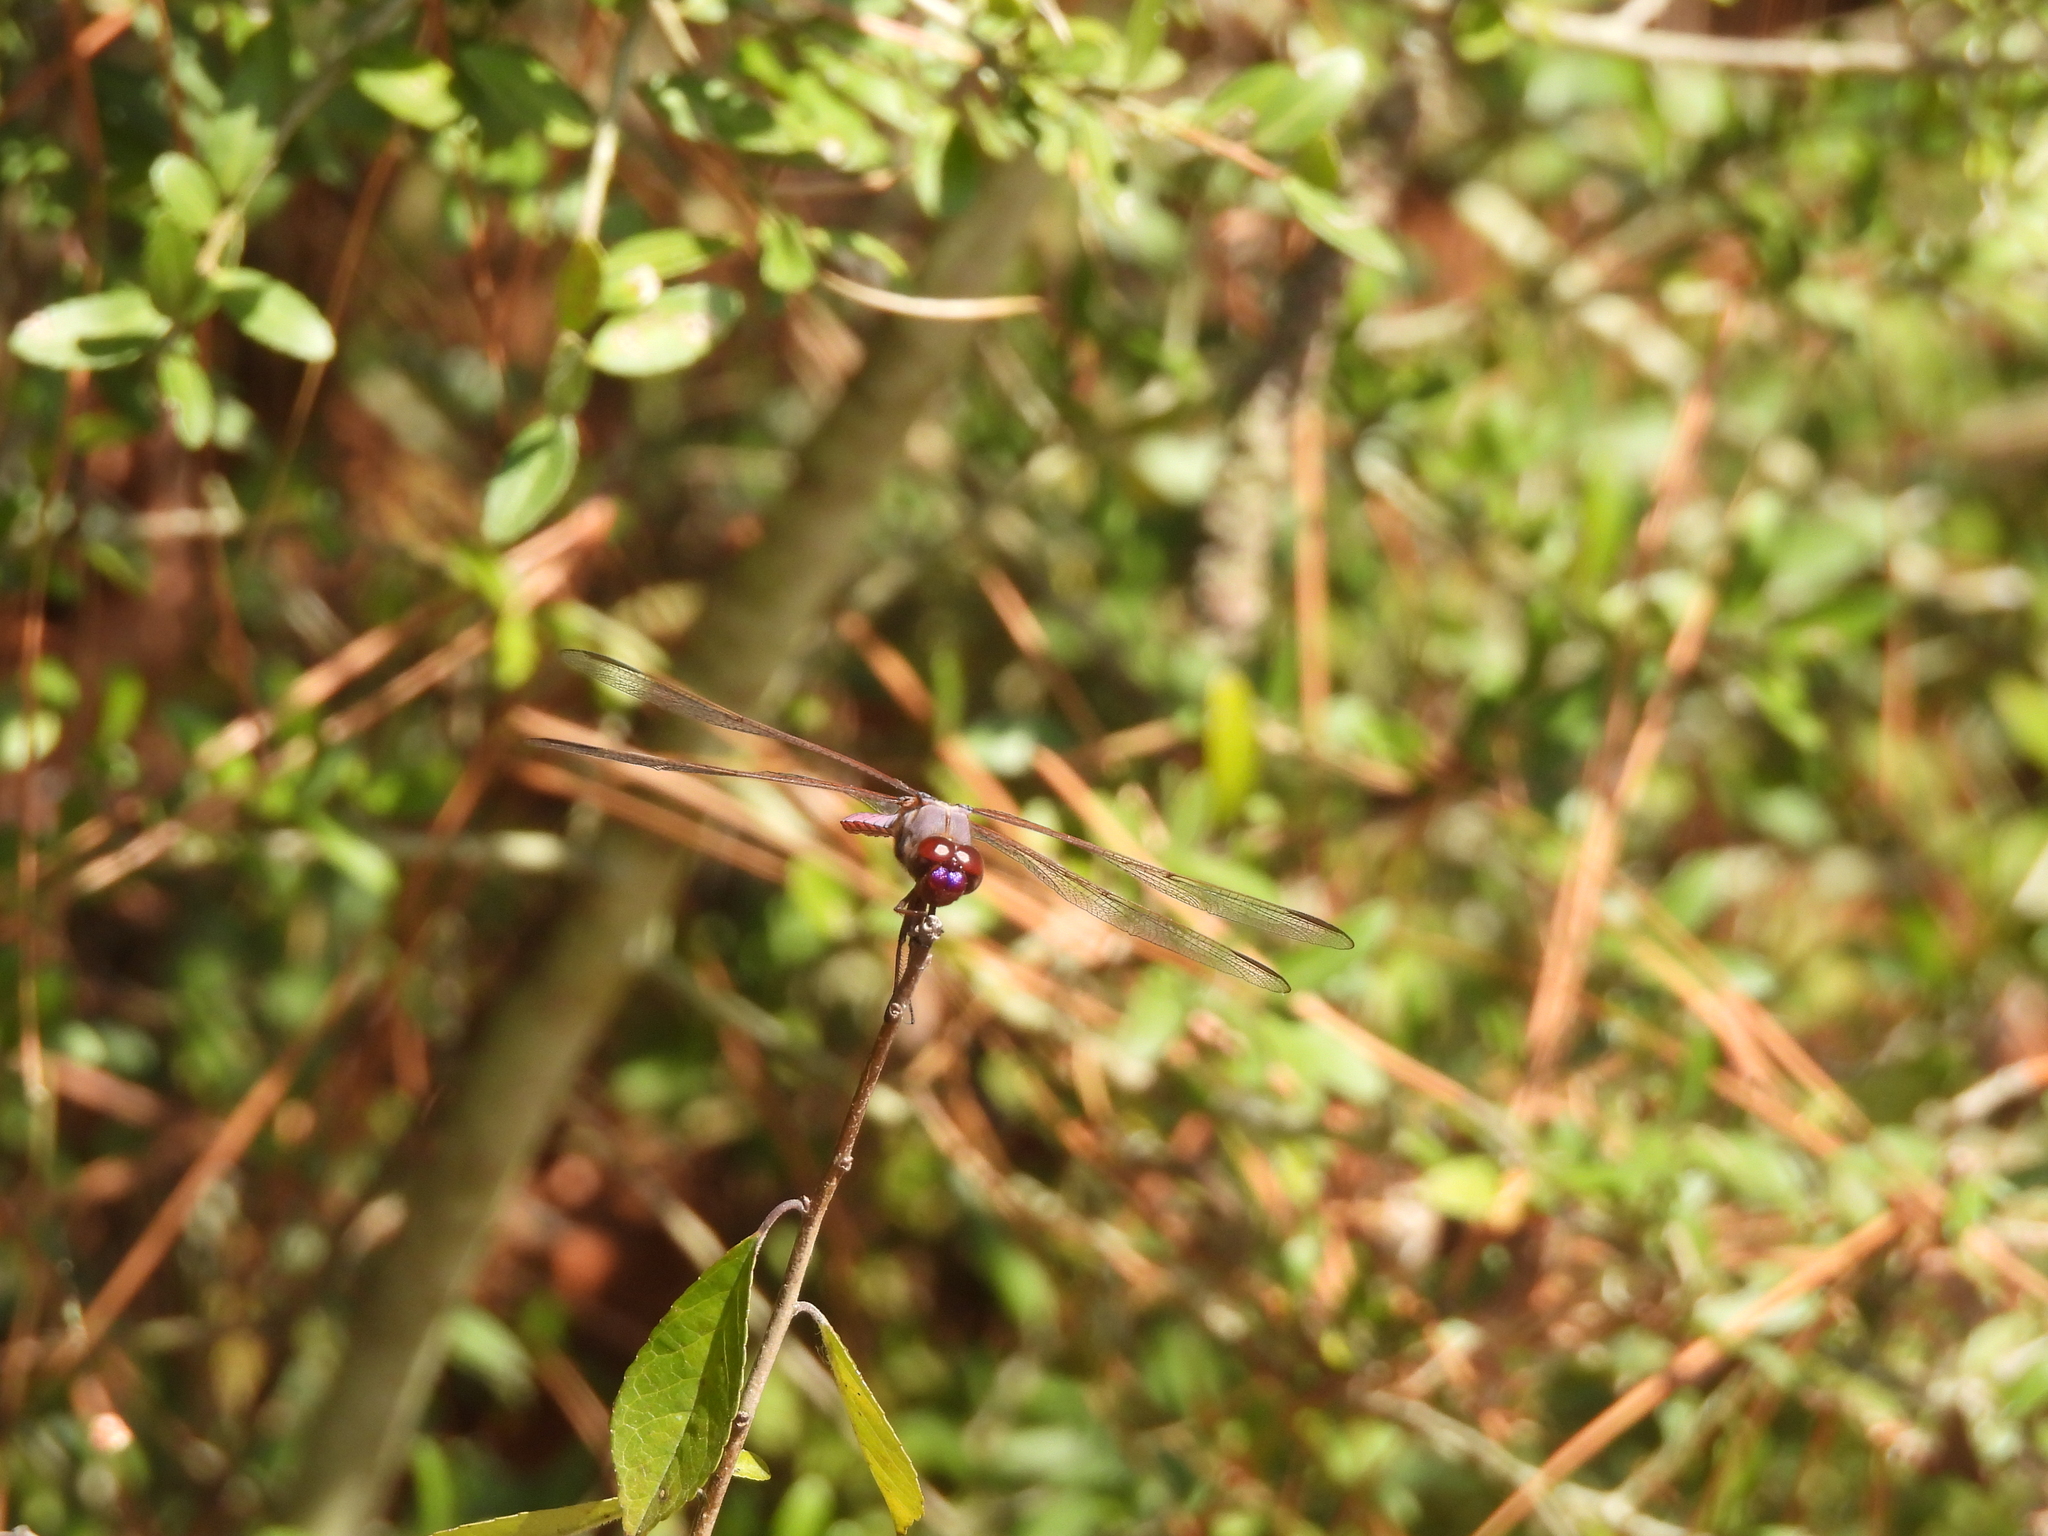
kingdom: Animalia
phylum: Arthropoda
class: Insecta
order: Odonata
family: Libellulidae
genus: Orthemis
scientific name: Orthemis ferruginea
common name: Roseate skimmer
